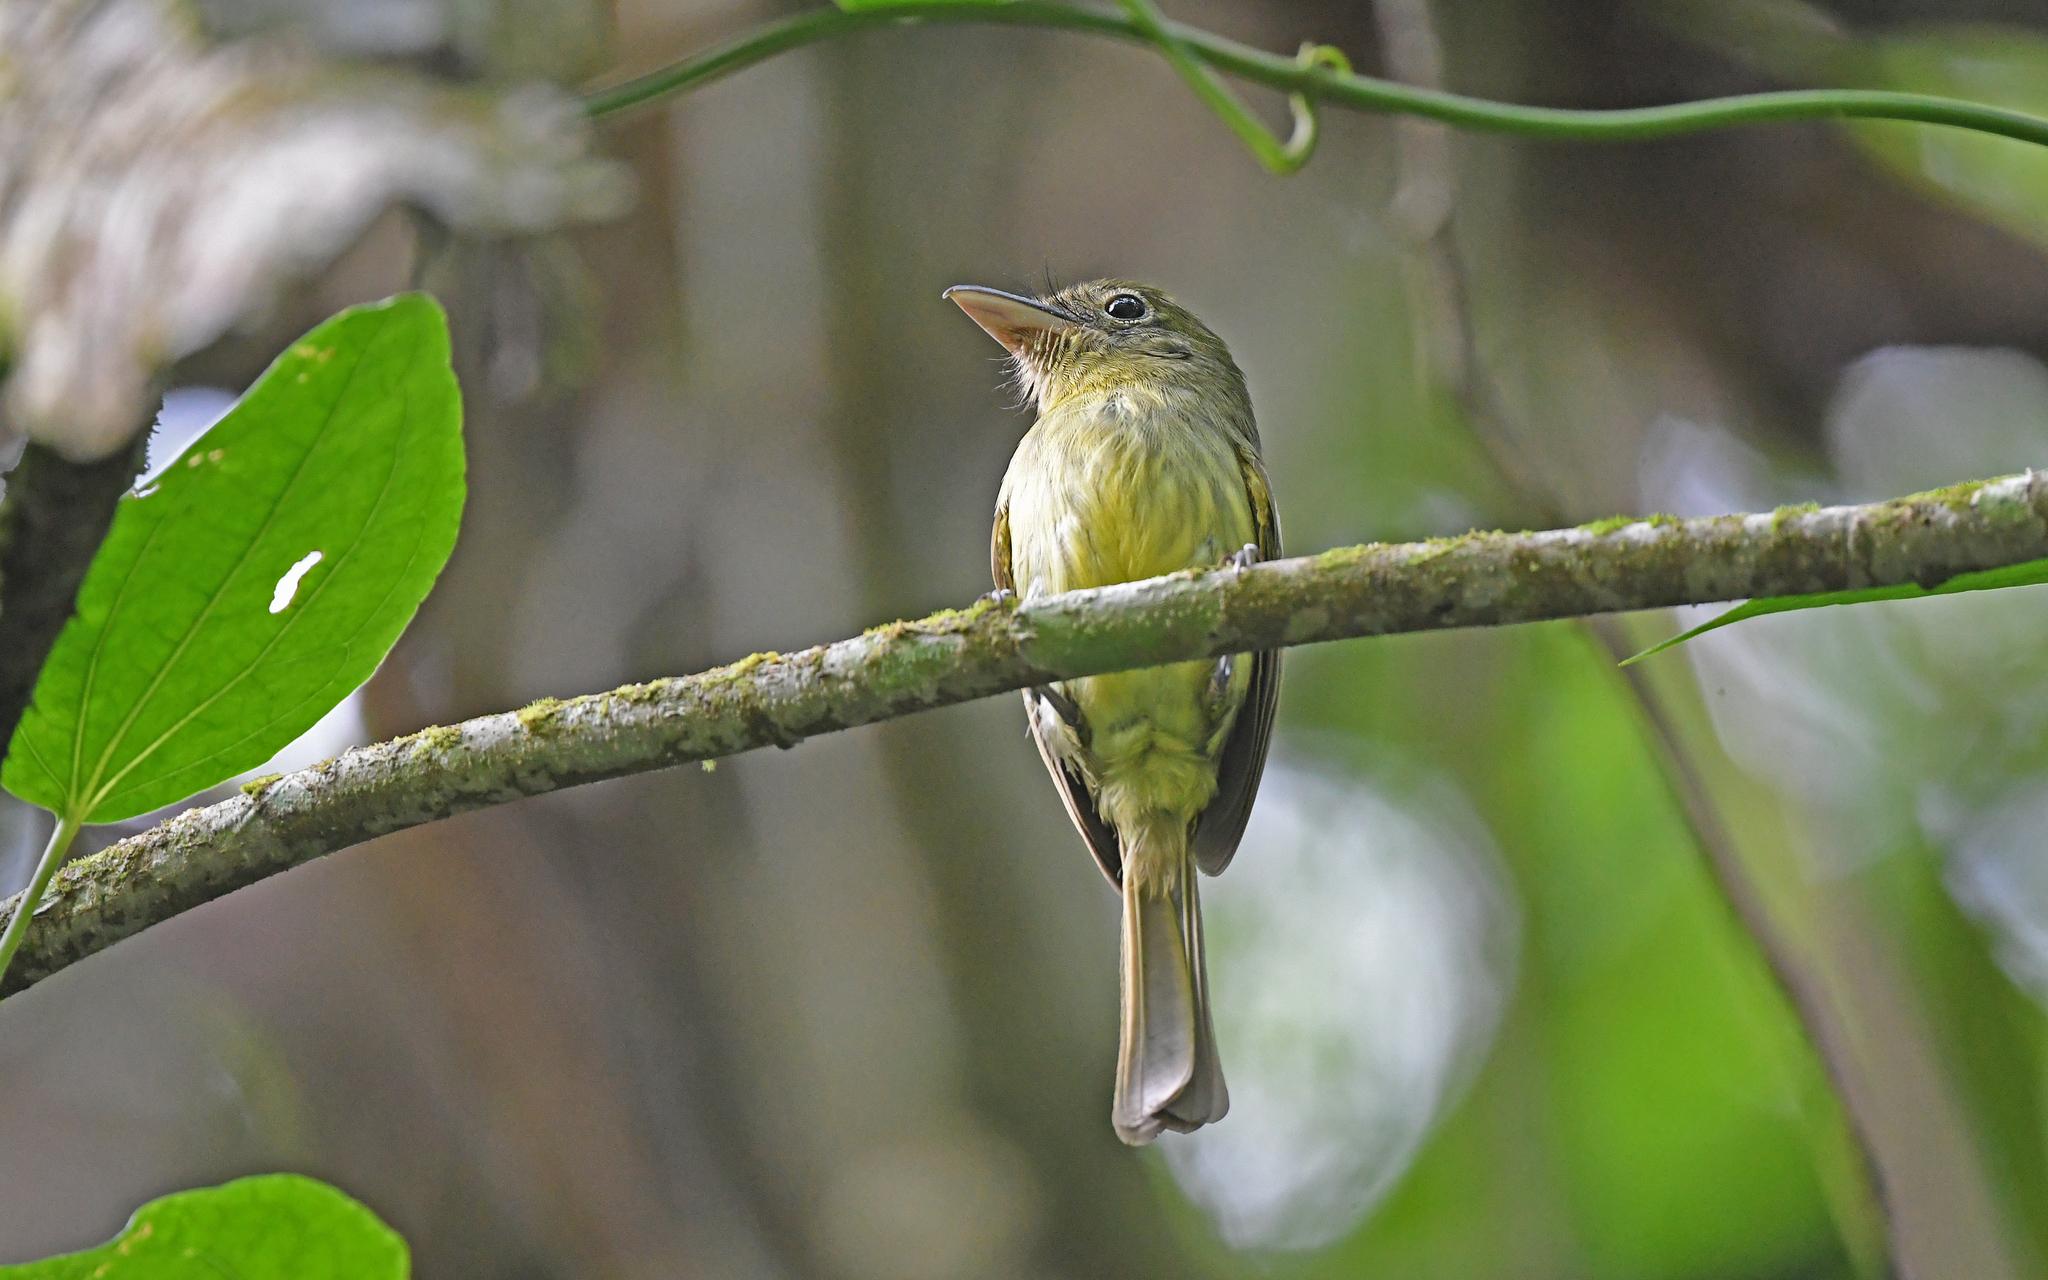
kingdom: Animalia
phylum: Chordata
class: Aves
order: Passeriformes
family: Tyrannidae
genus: Rhynchocyclus
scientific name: Rhynchocyclus olivaceus
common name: Olivaceous flatbill
